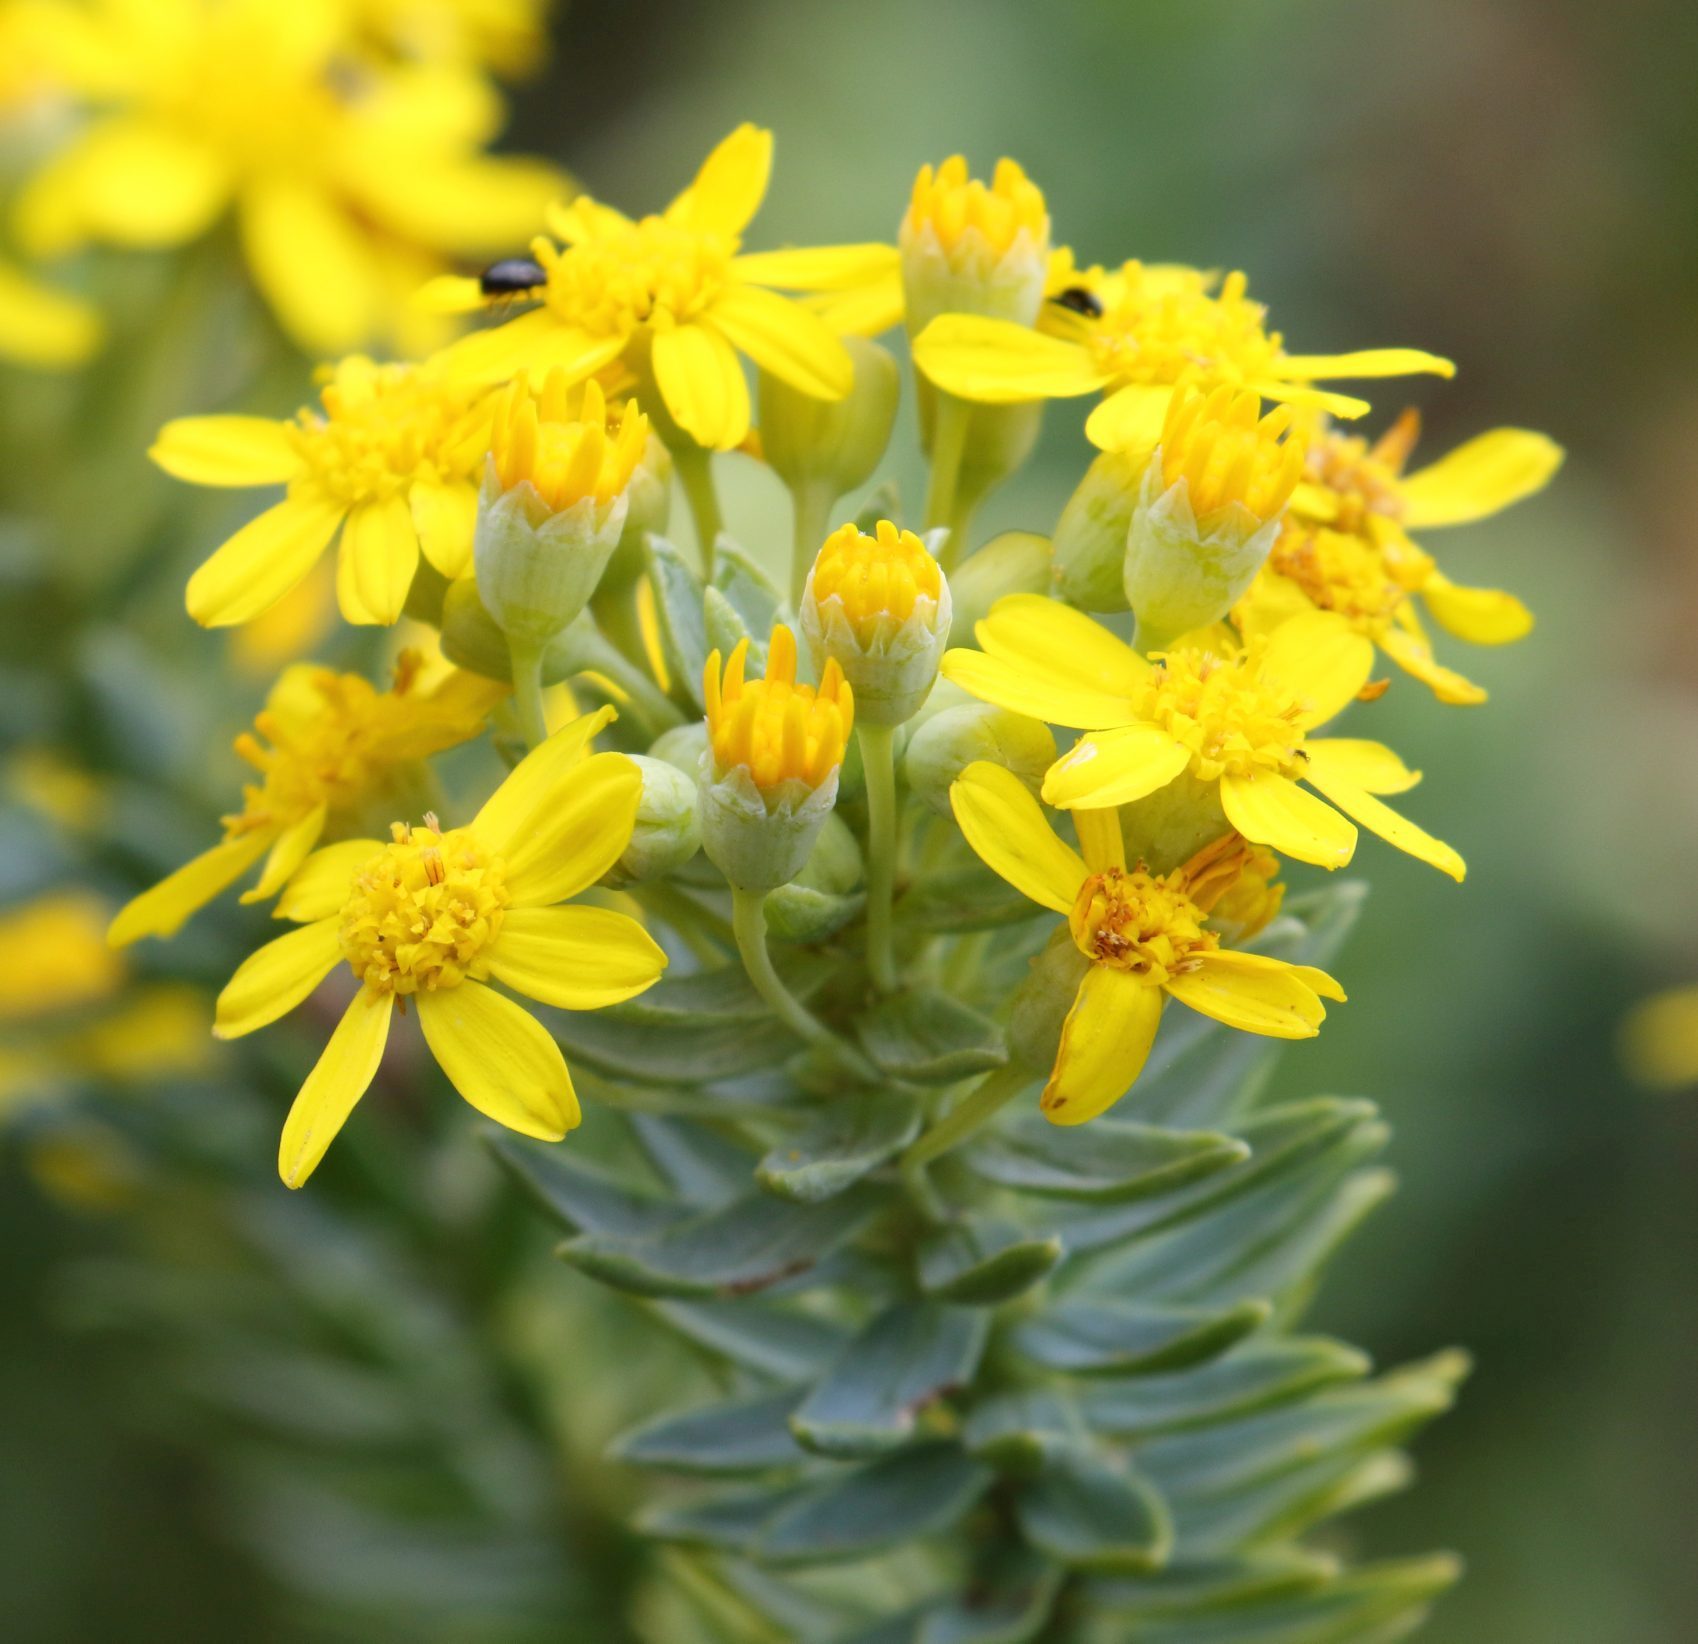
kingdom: Plantae
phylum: Tracheophyta
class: Magnoliopsida
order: Asterales
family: Asteraceae
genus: Euryops
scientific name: Euryops tysonii
